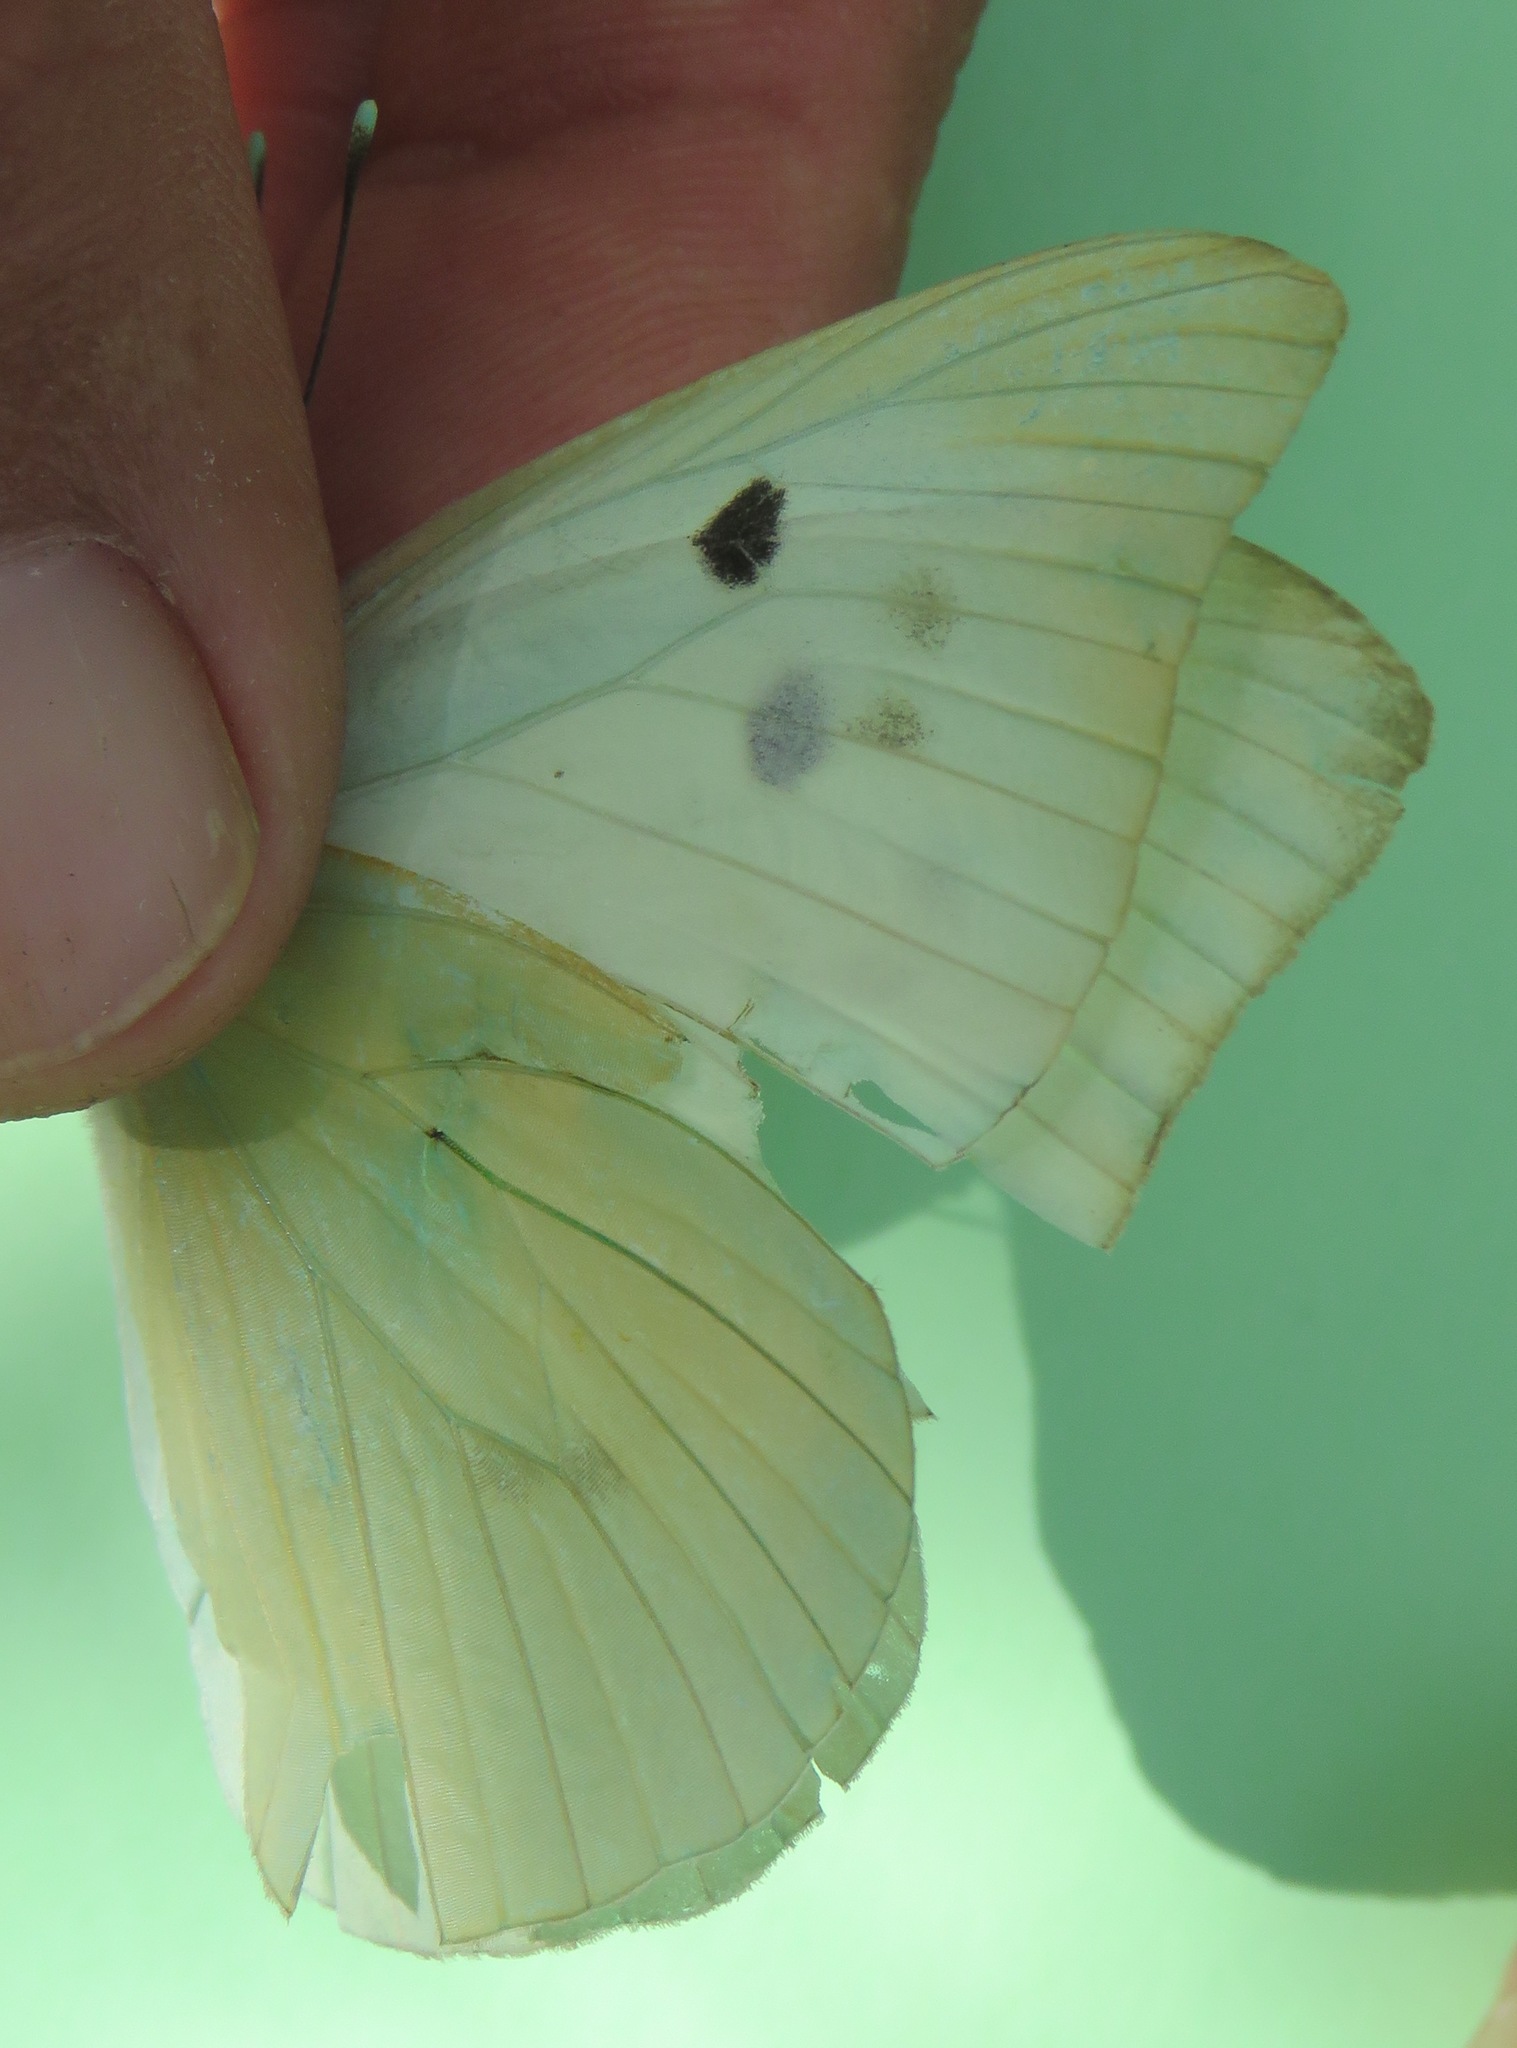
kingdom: Animalia
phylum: Arthropoda
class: Insecta
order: Lepidoptera
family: Pieridae
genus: Ganyra
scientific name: Ganyra josephina
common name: Giant white
